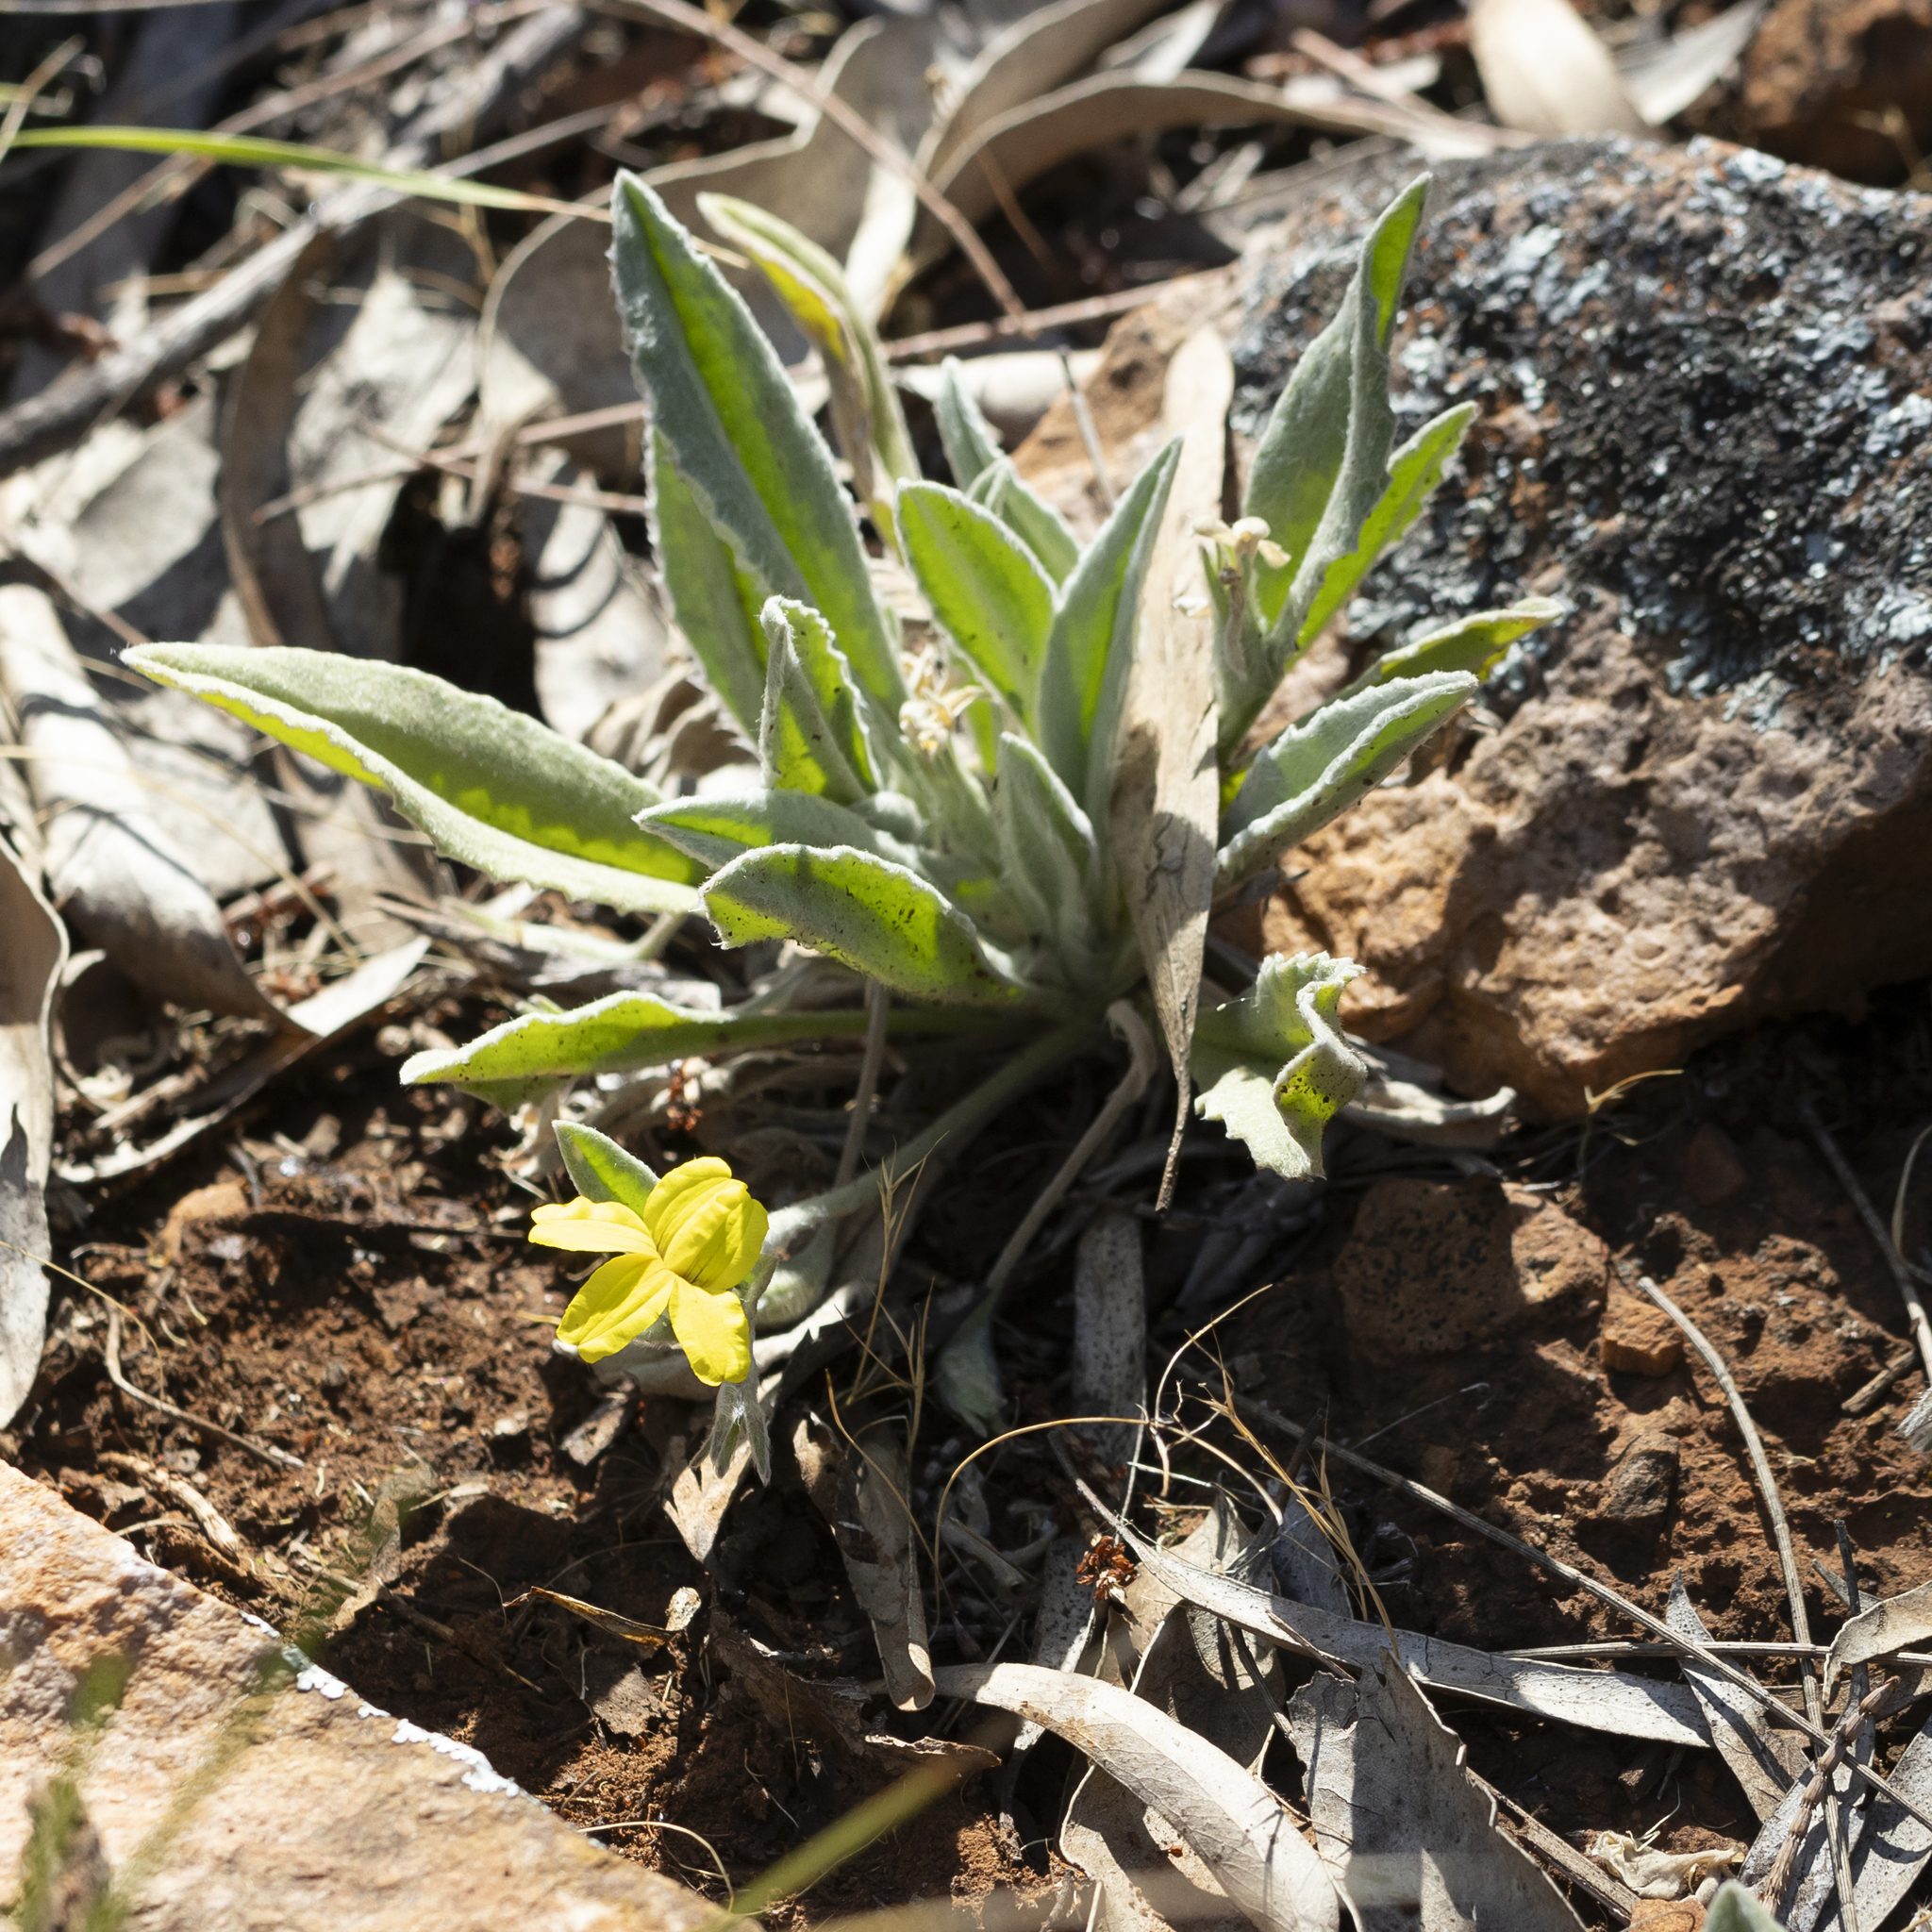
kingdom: Plantae
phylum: Tracheophyta
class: Magnoliopsida
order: Asterales
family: Goodeniaceae
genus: Goodenia
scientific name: Goodenia robusta
